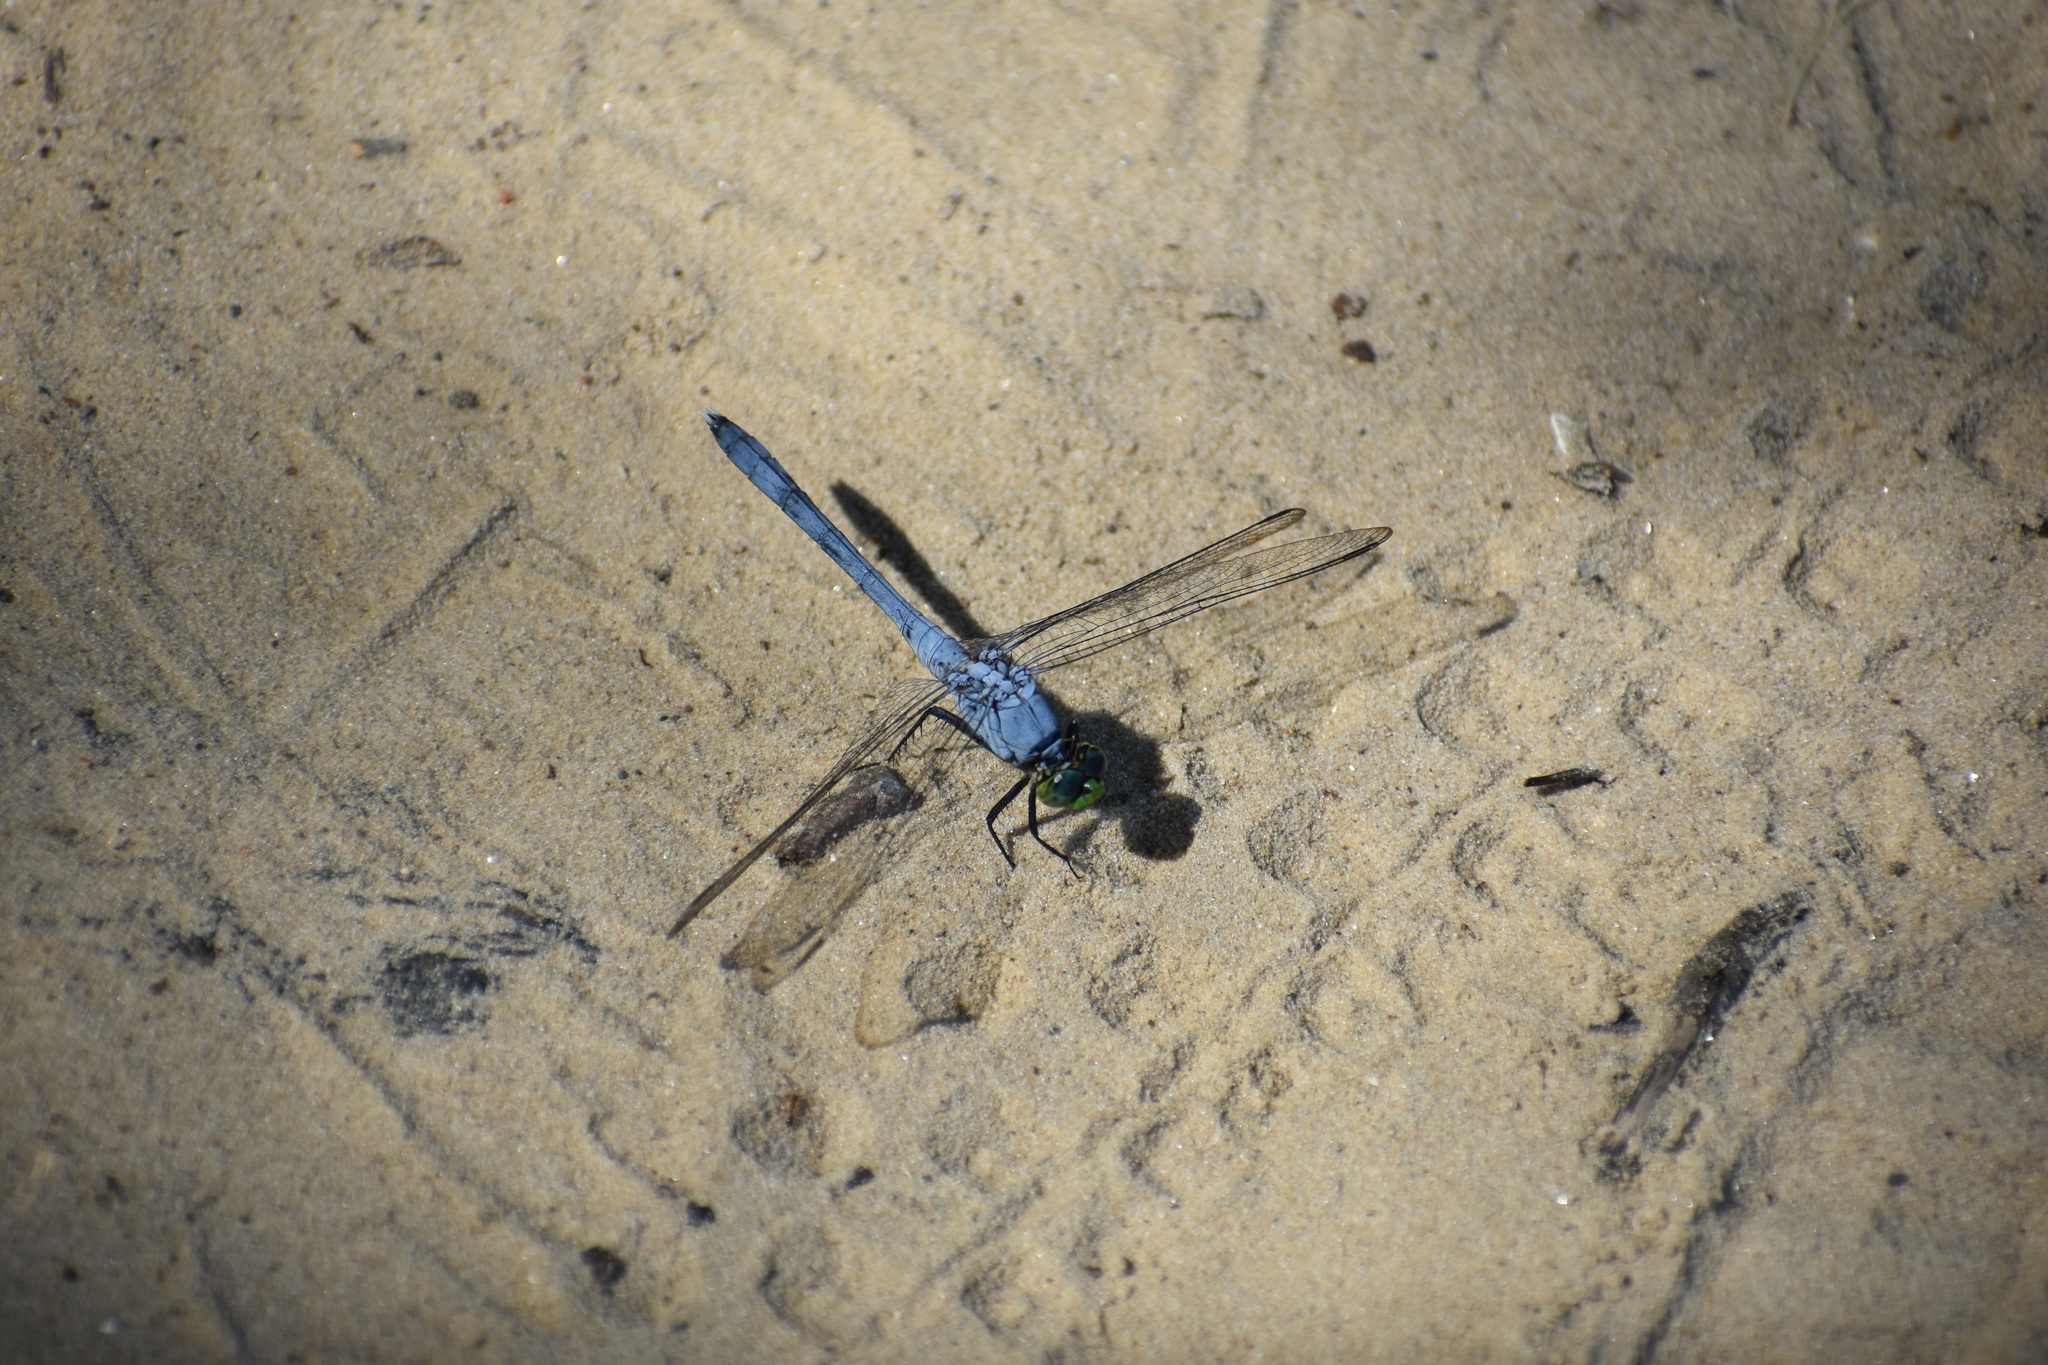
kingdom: Animalia
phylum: Arthropoda
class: Insecta
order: Odonata
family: Libellulidae
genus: Erythemis
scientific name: Erythemis simplicicollis
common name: Eastern pondhawk
